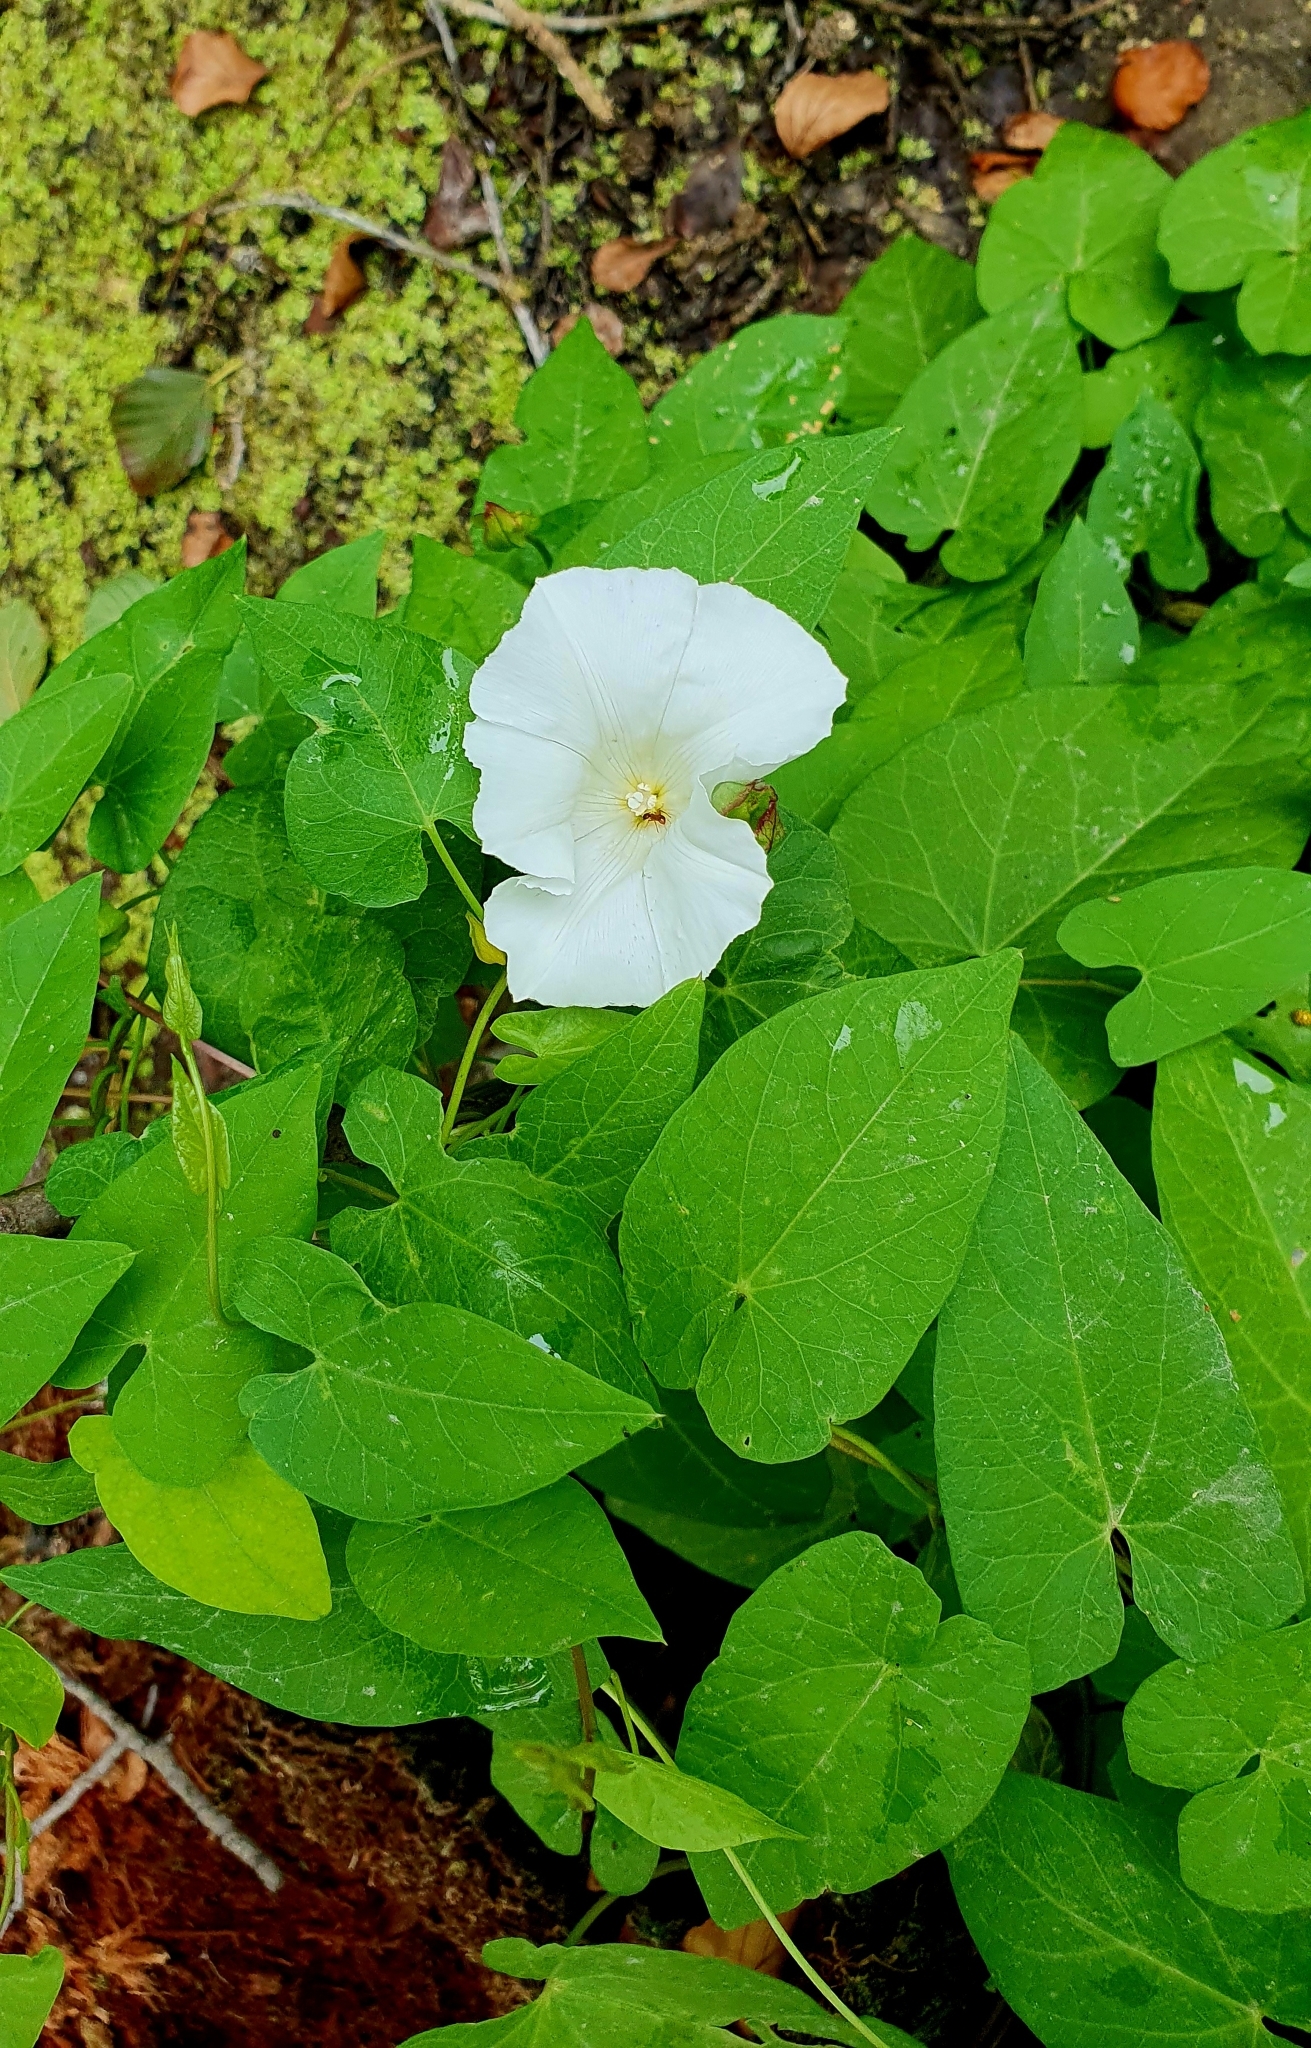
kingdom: Plantae
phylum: Tracheophyta
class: Magnoliopsida
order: Solanales
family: Convolvulaceae
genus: Calystegia
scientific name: Calystegia sepium
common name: Hedge bindweed
